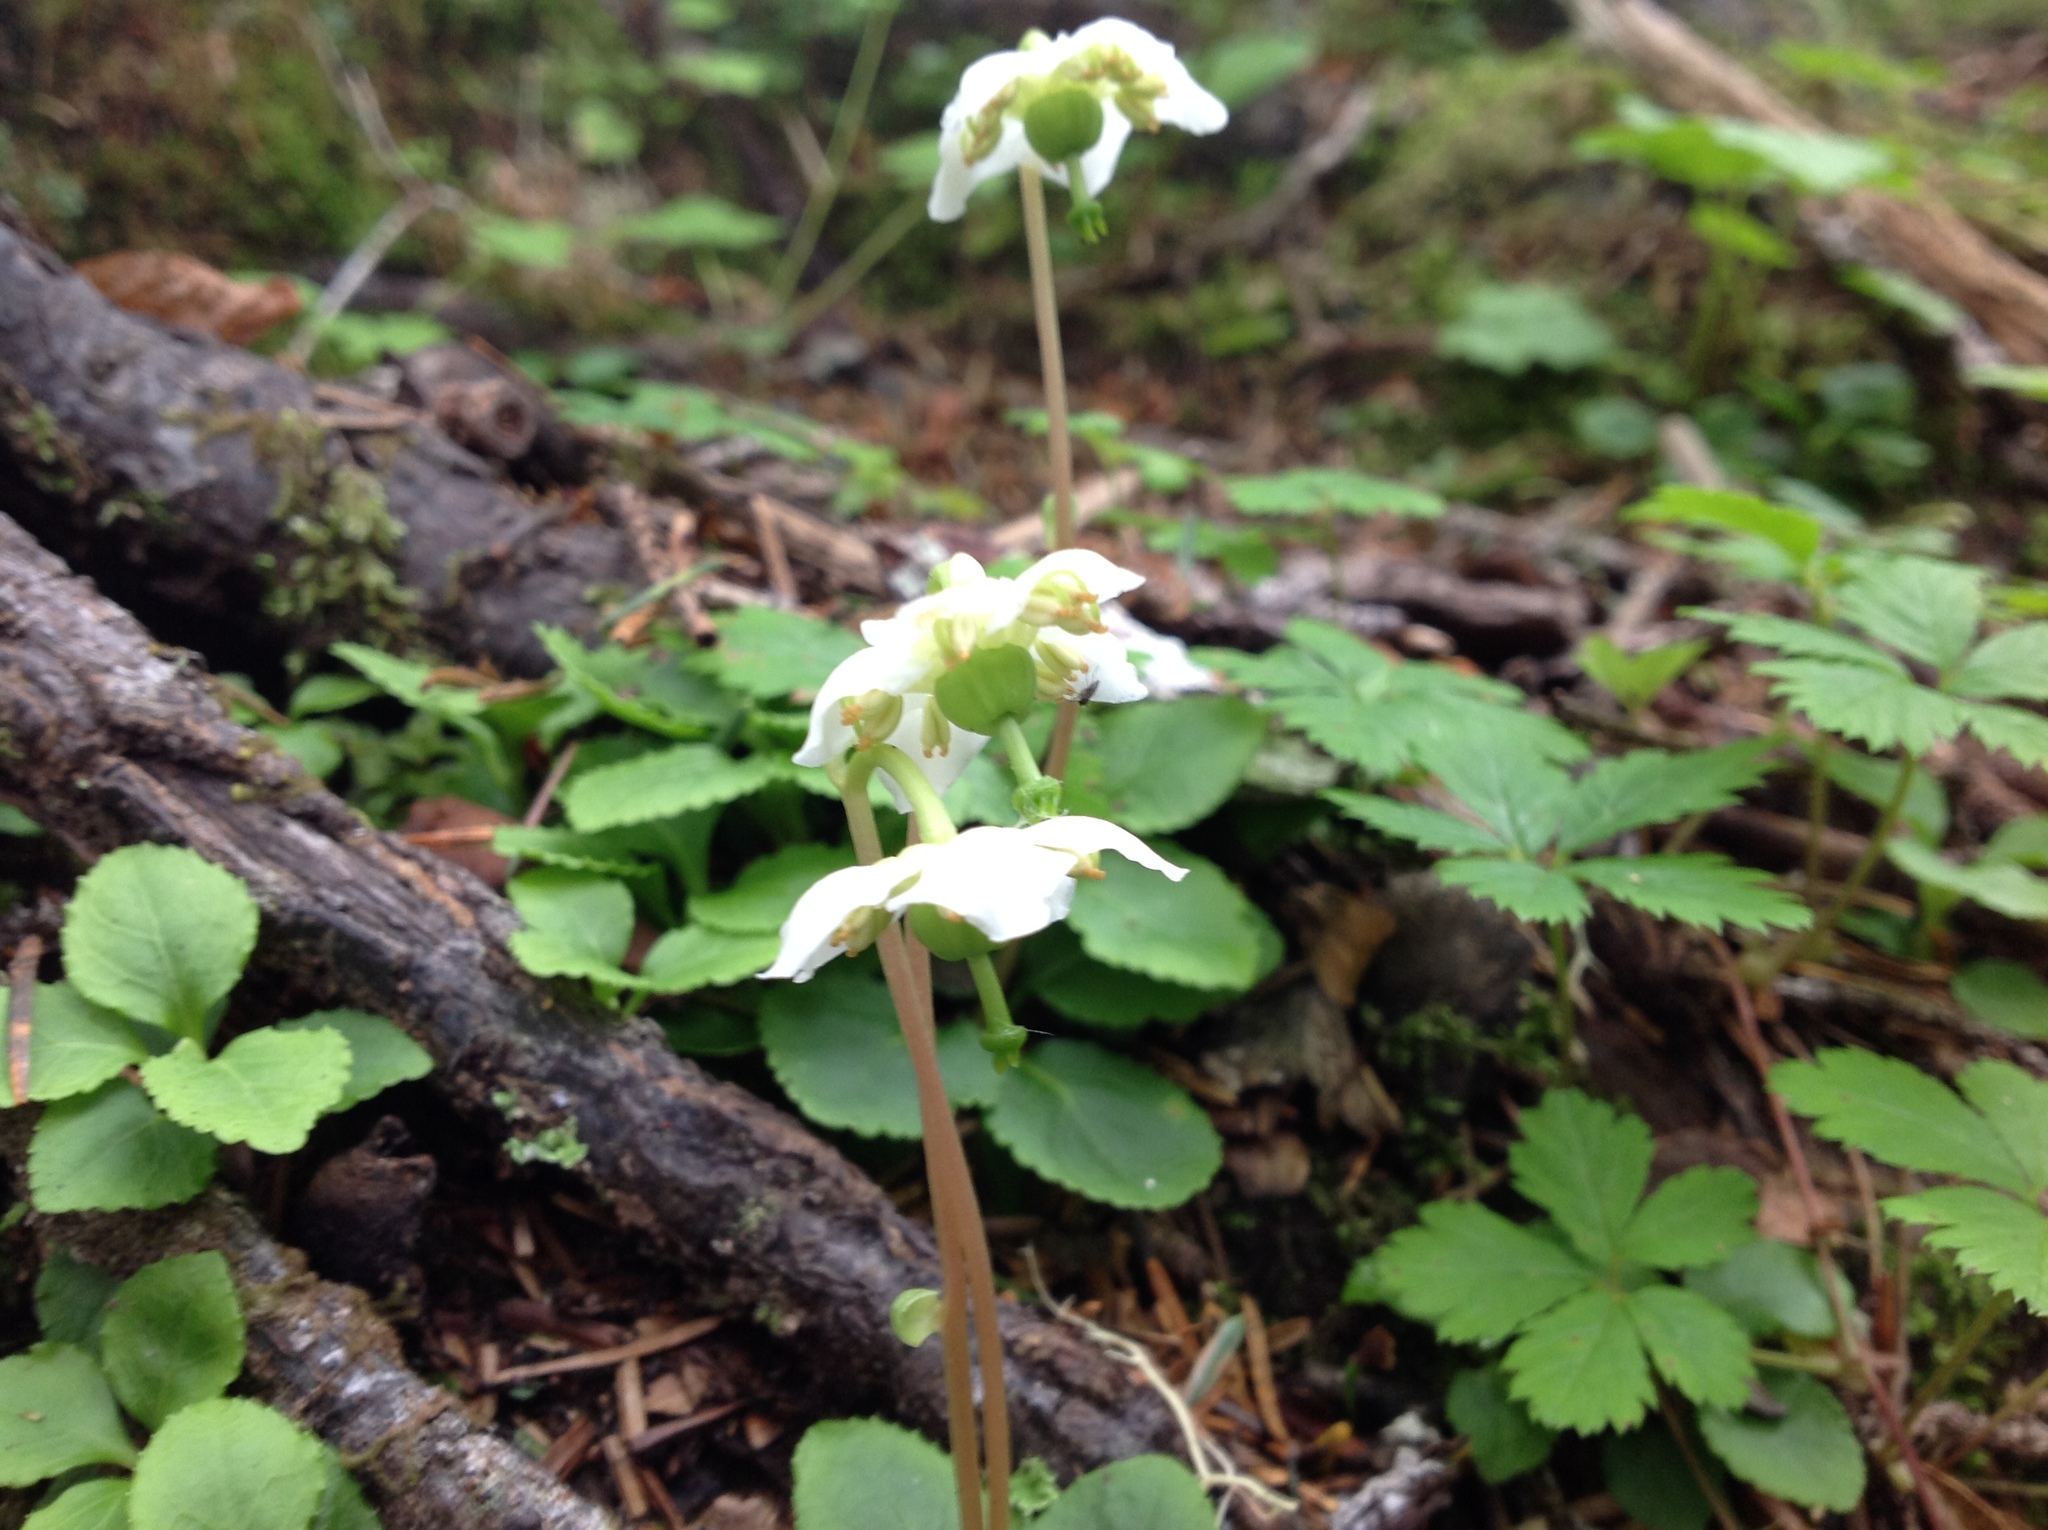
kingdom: Plantae
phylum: Tracheophyta
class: Magnoliopsida
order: Ericales
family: Ericaceae
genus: Moneses
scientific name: Moneses uniflora
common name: One-flowered wintergreen
